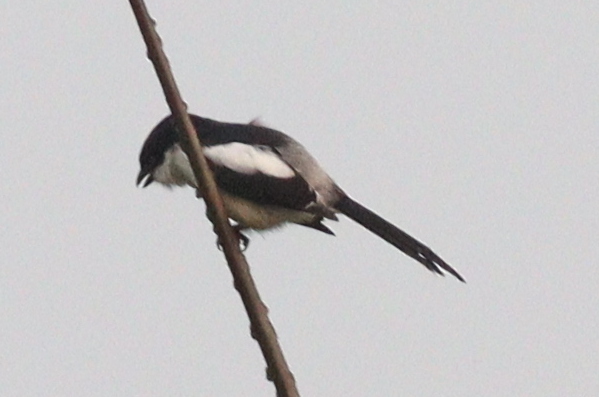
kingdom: Animalia
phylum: Chordata
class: Aves
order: Passeriformes
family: Laniidae
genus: Lanius
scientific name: Lanius humeralis
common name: Northern fiscal
